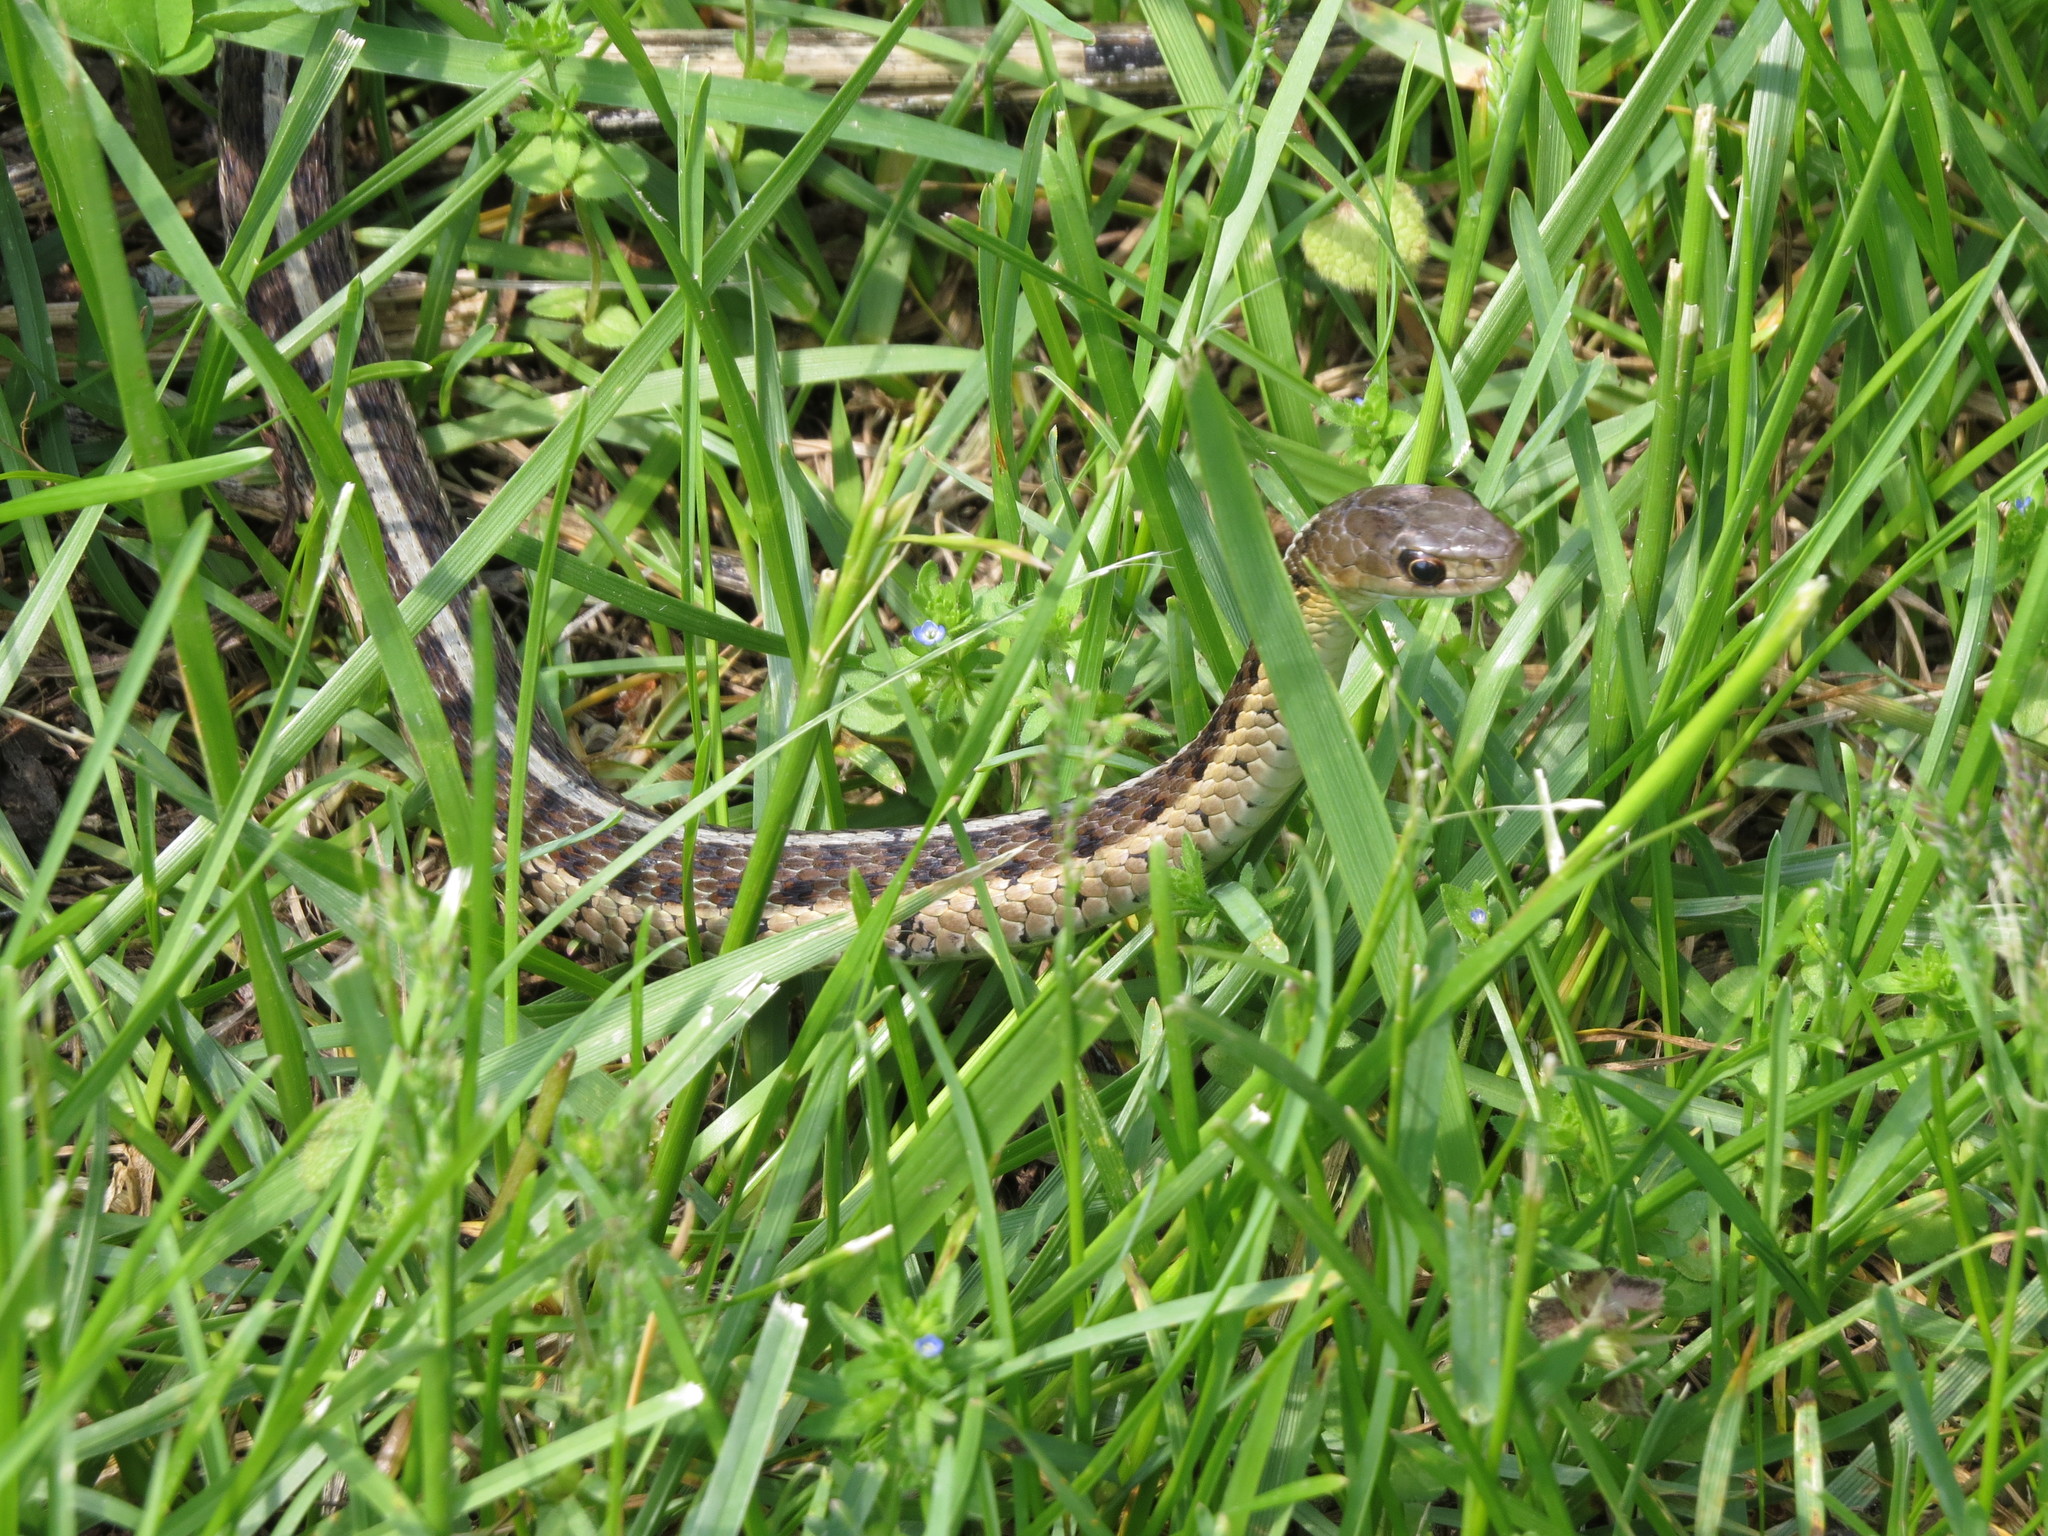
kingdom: Animalia
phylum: Chordata
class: Squamata
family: Colubridae
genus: Thamnophis
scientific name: Thamnophis sirtalis
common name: Common garter snake
